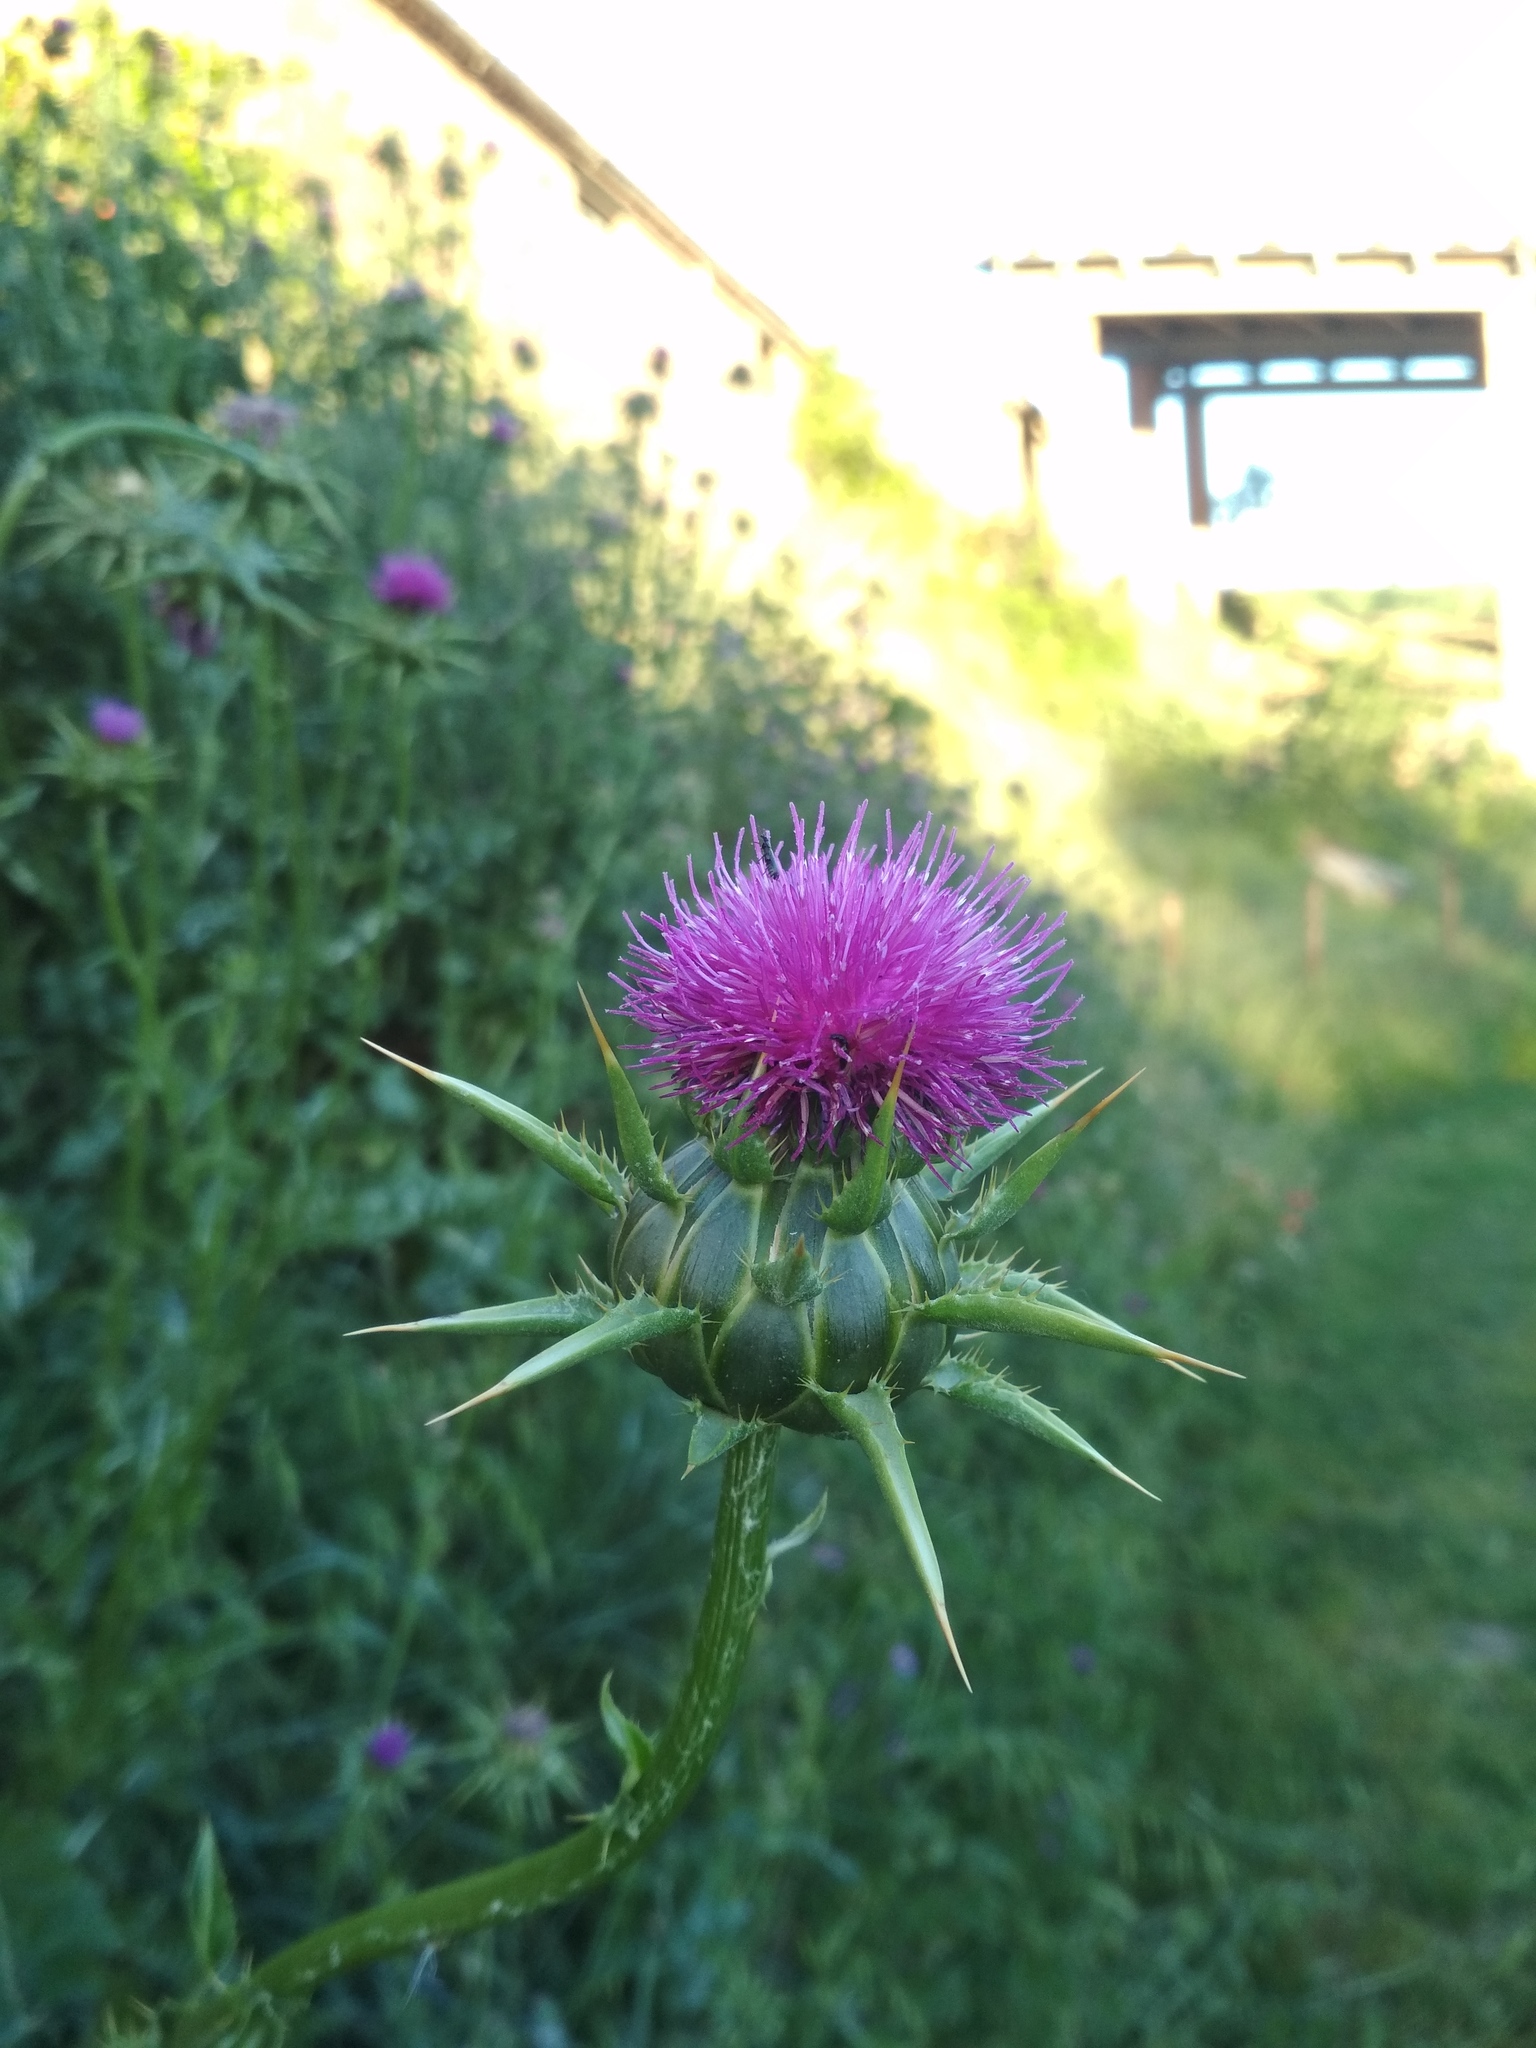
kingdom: Plantae
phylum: Tracheophyta
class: Magnoliopsida
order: Asterales
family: Asteraceae
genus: Silybum
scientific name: Silybum marianum
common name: Milk thistle
